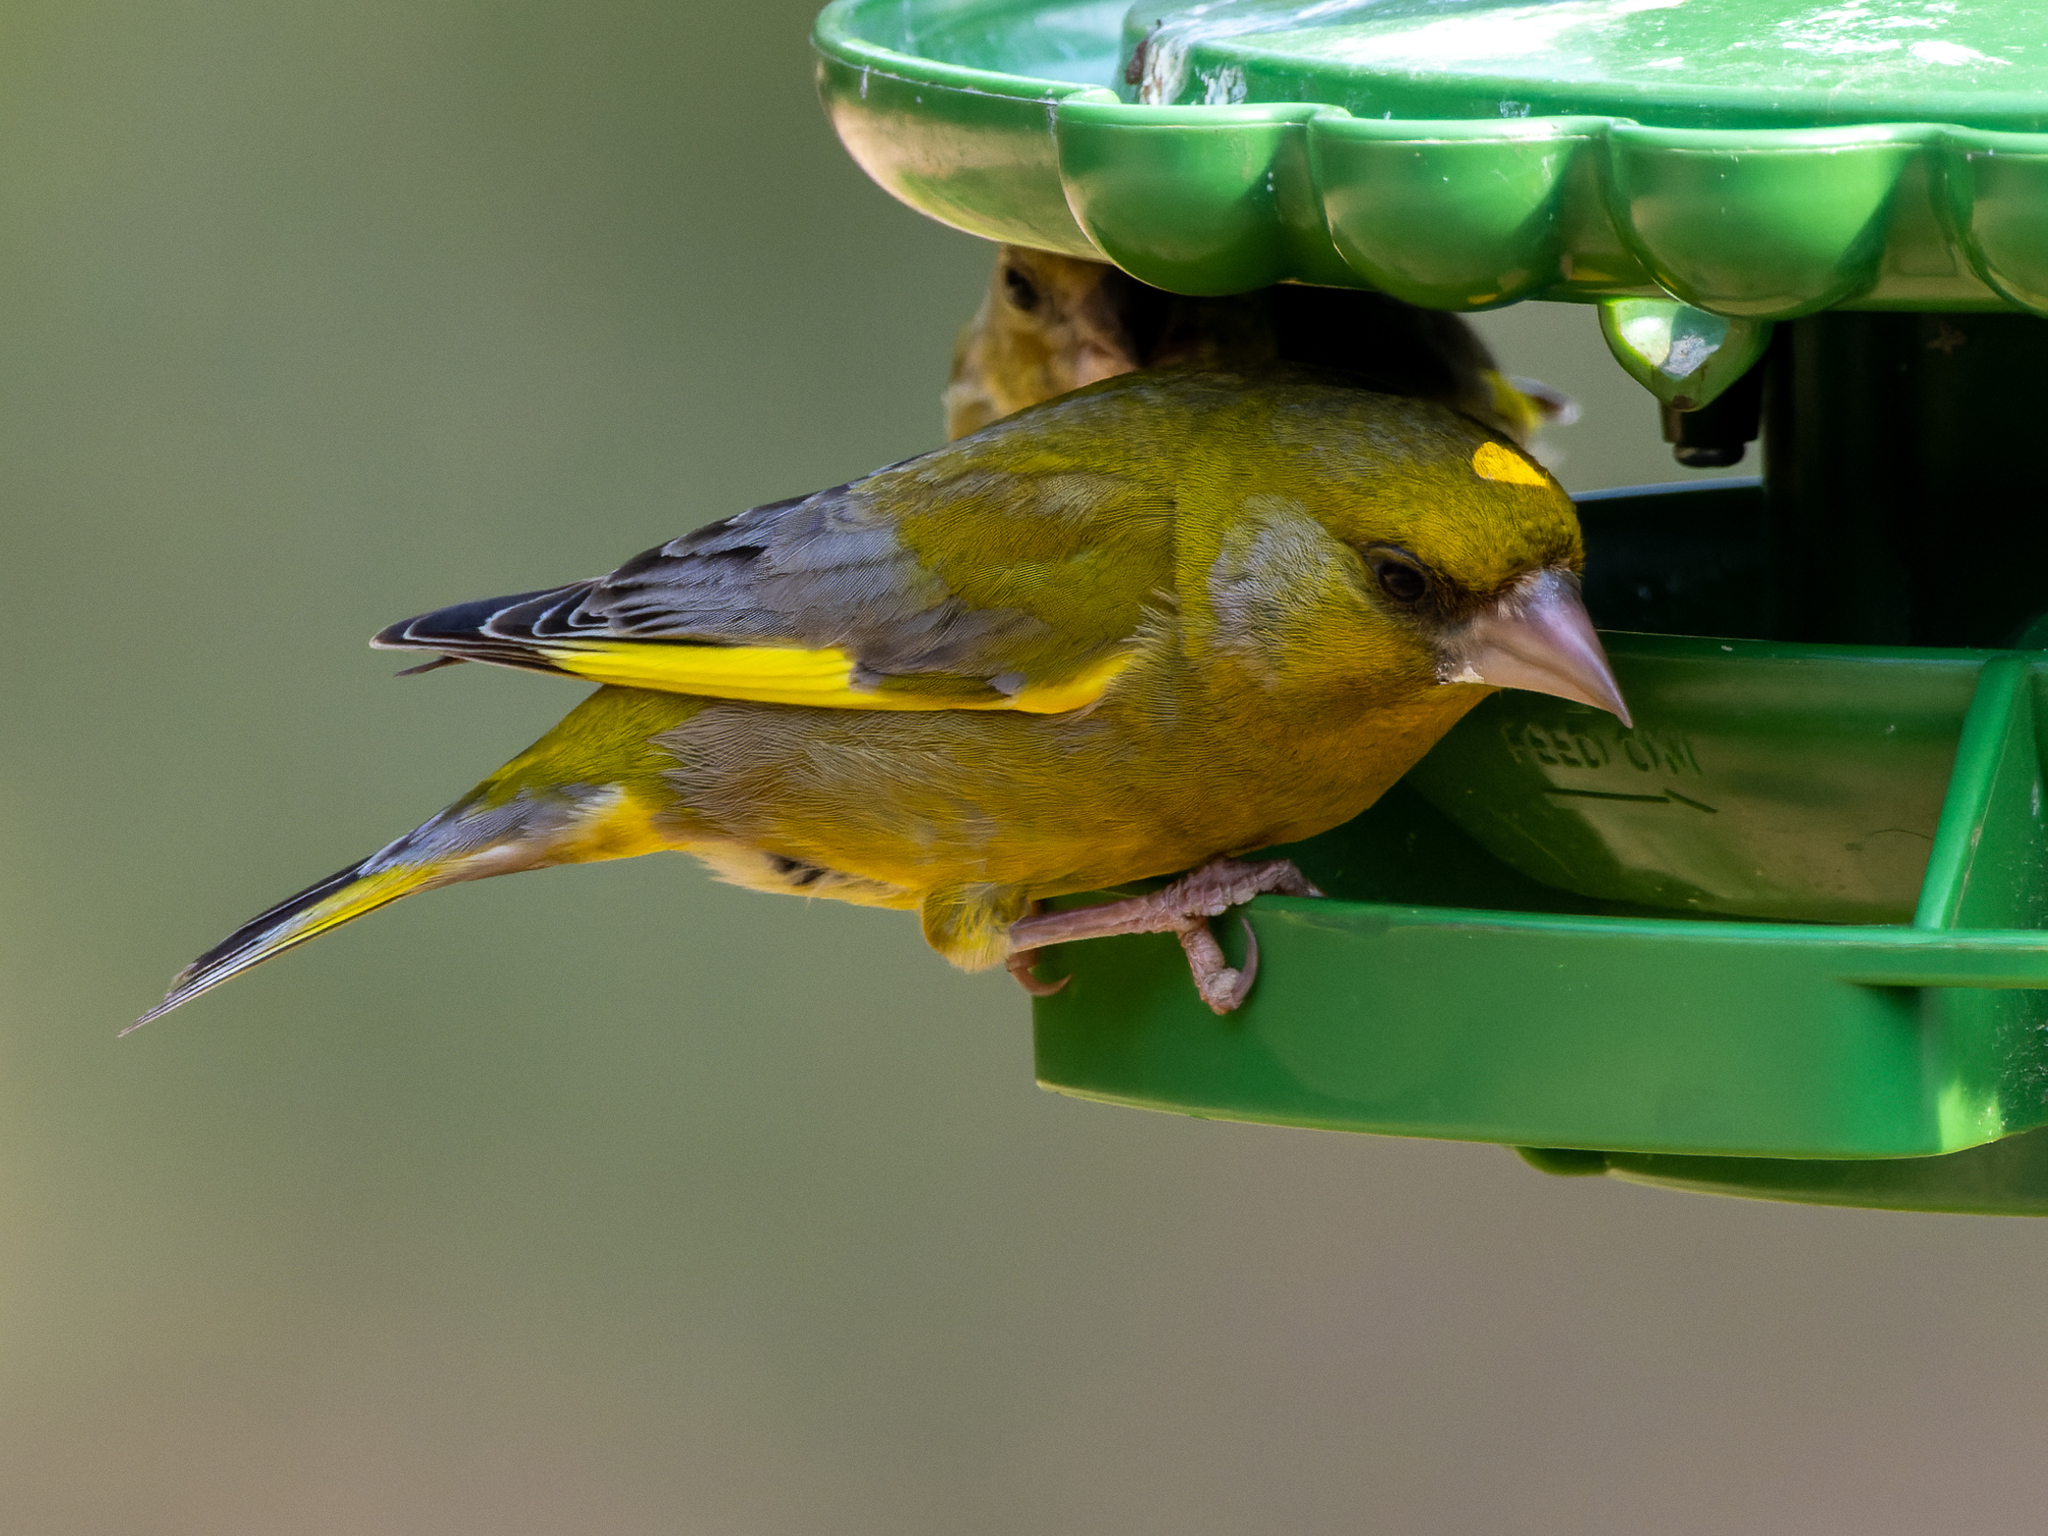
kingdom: Plantae
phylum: Tracheophyta
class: Liliopsida
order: Poales
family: Poaceae
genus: Chloris
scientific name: Chloris chloris
